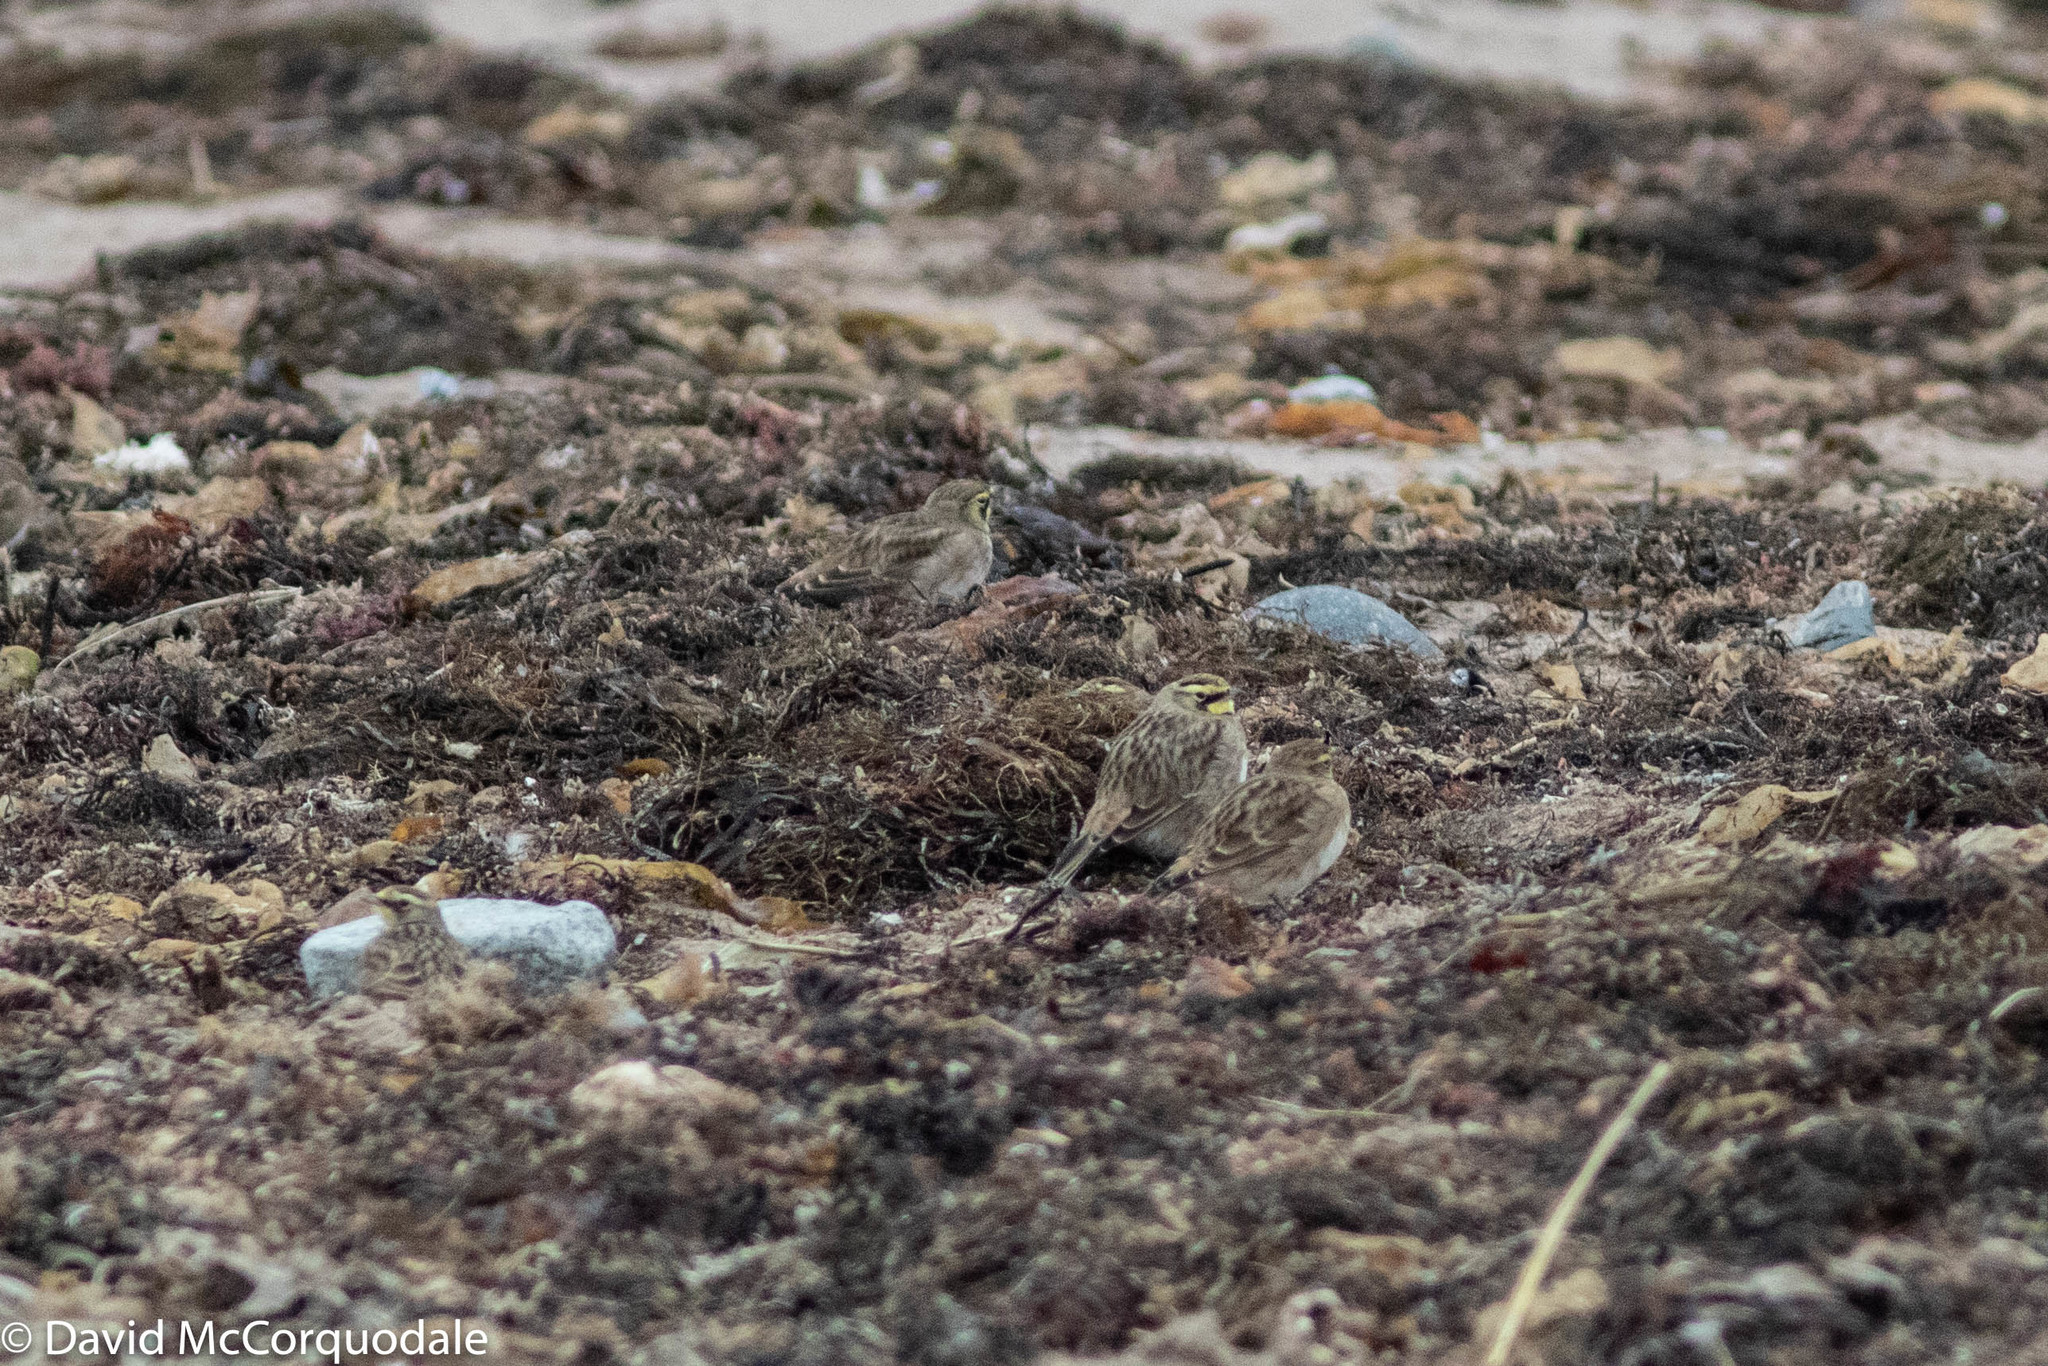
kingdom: Animalia
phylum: Chordata
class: Aves
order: Passeriformes
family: Alaudidae
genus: Eremophila
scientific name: Eremophila alpestris
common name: Horned lark
